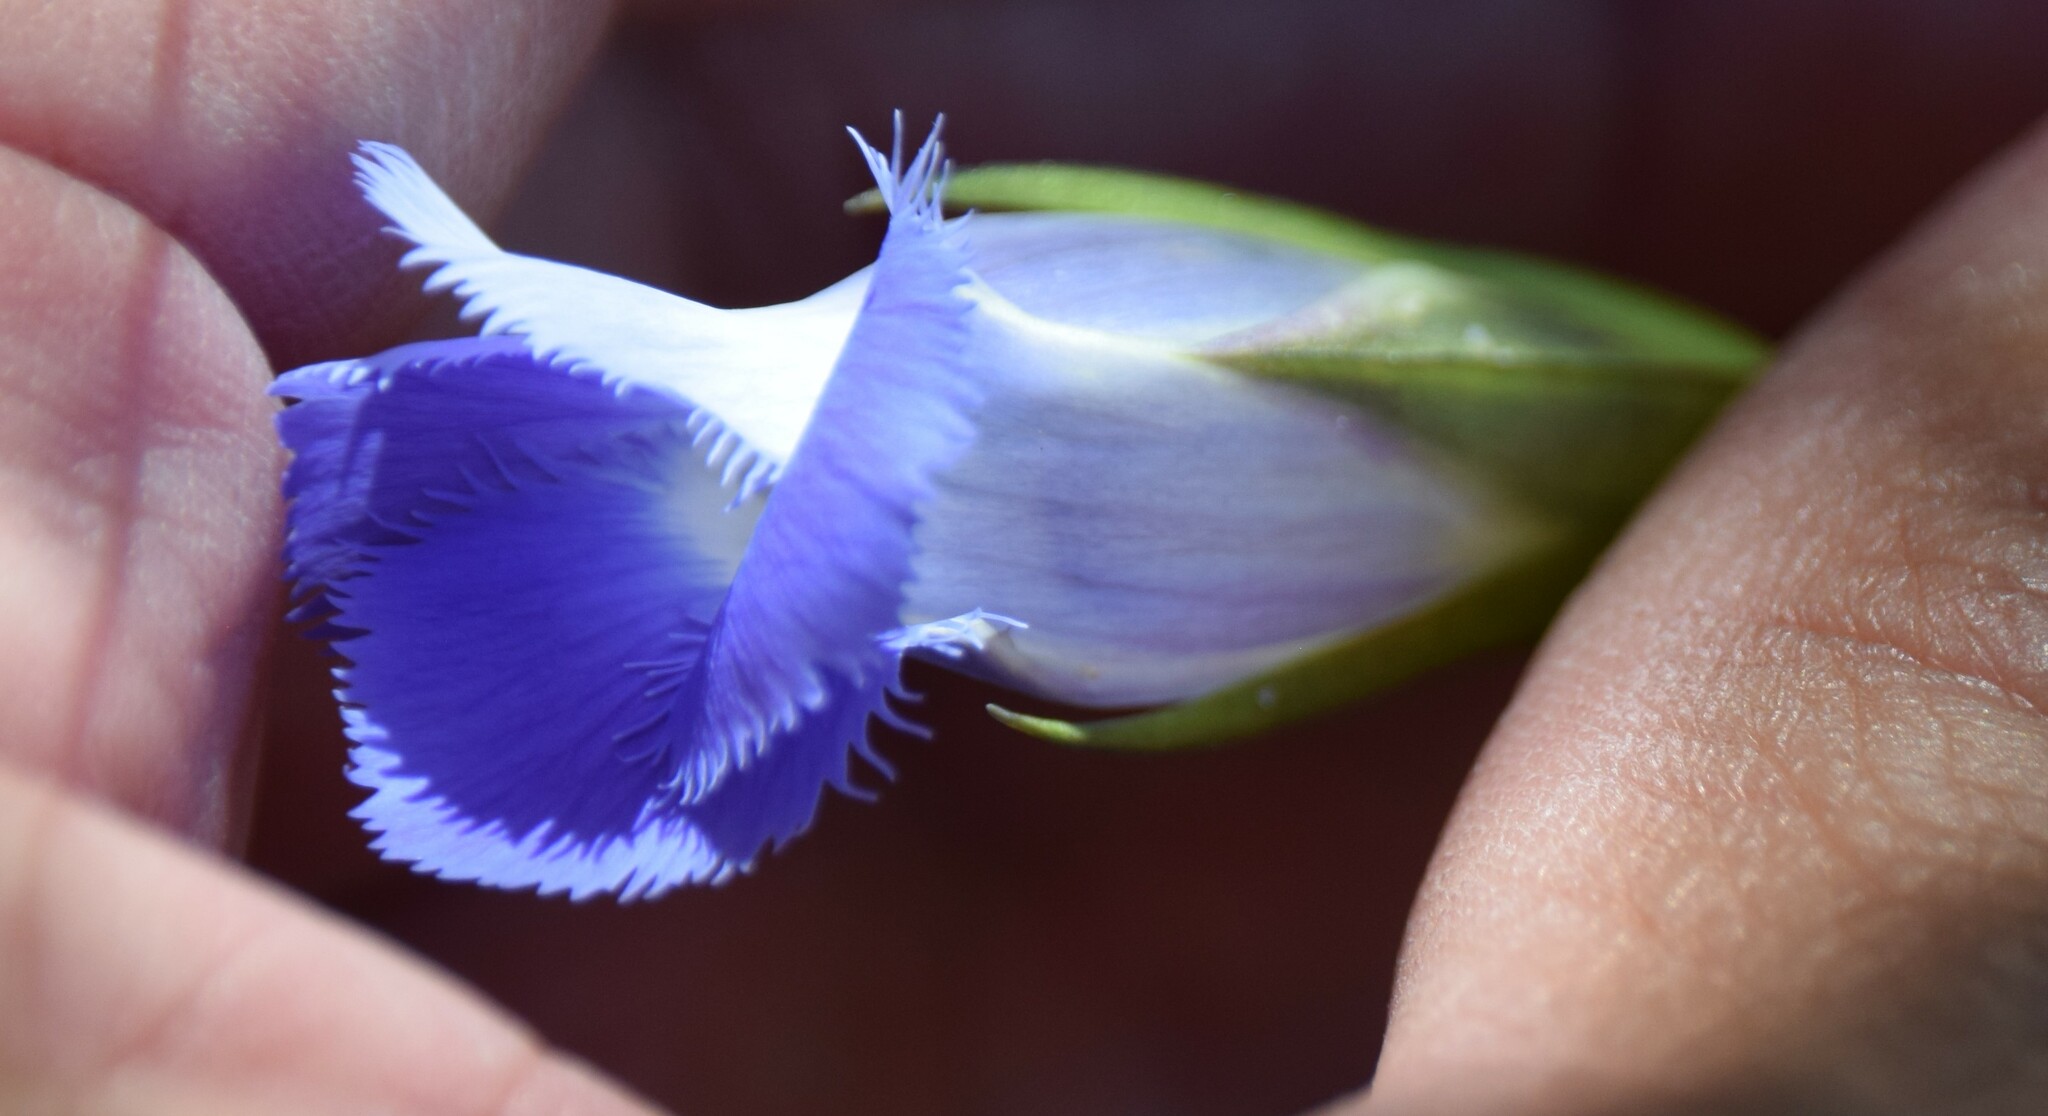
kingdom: Plantae
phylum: Tracheophyta
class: Magnoliopsida
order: Gentianales
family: Gentianaceae
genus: Gentianopsis
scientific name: Gentianopsis virgata
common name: Lesser fringed-gentian
